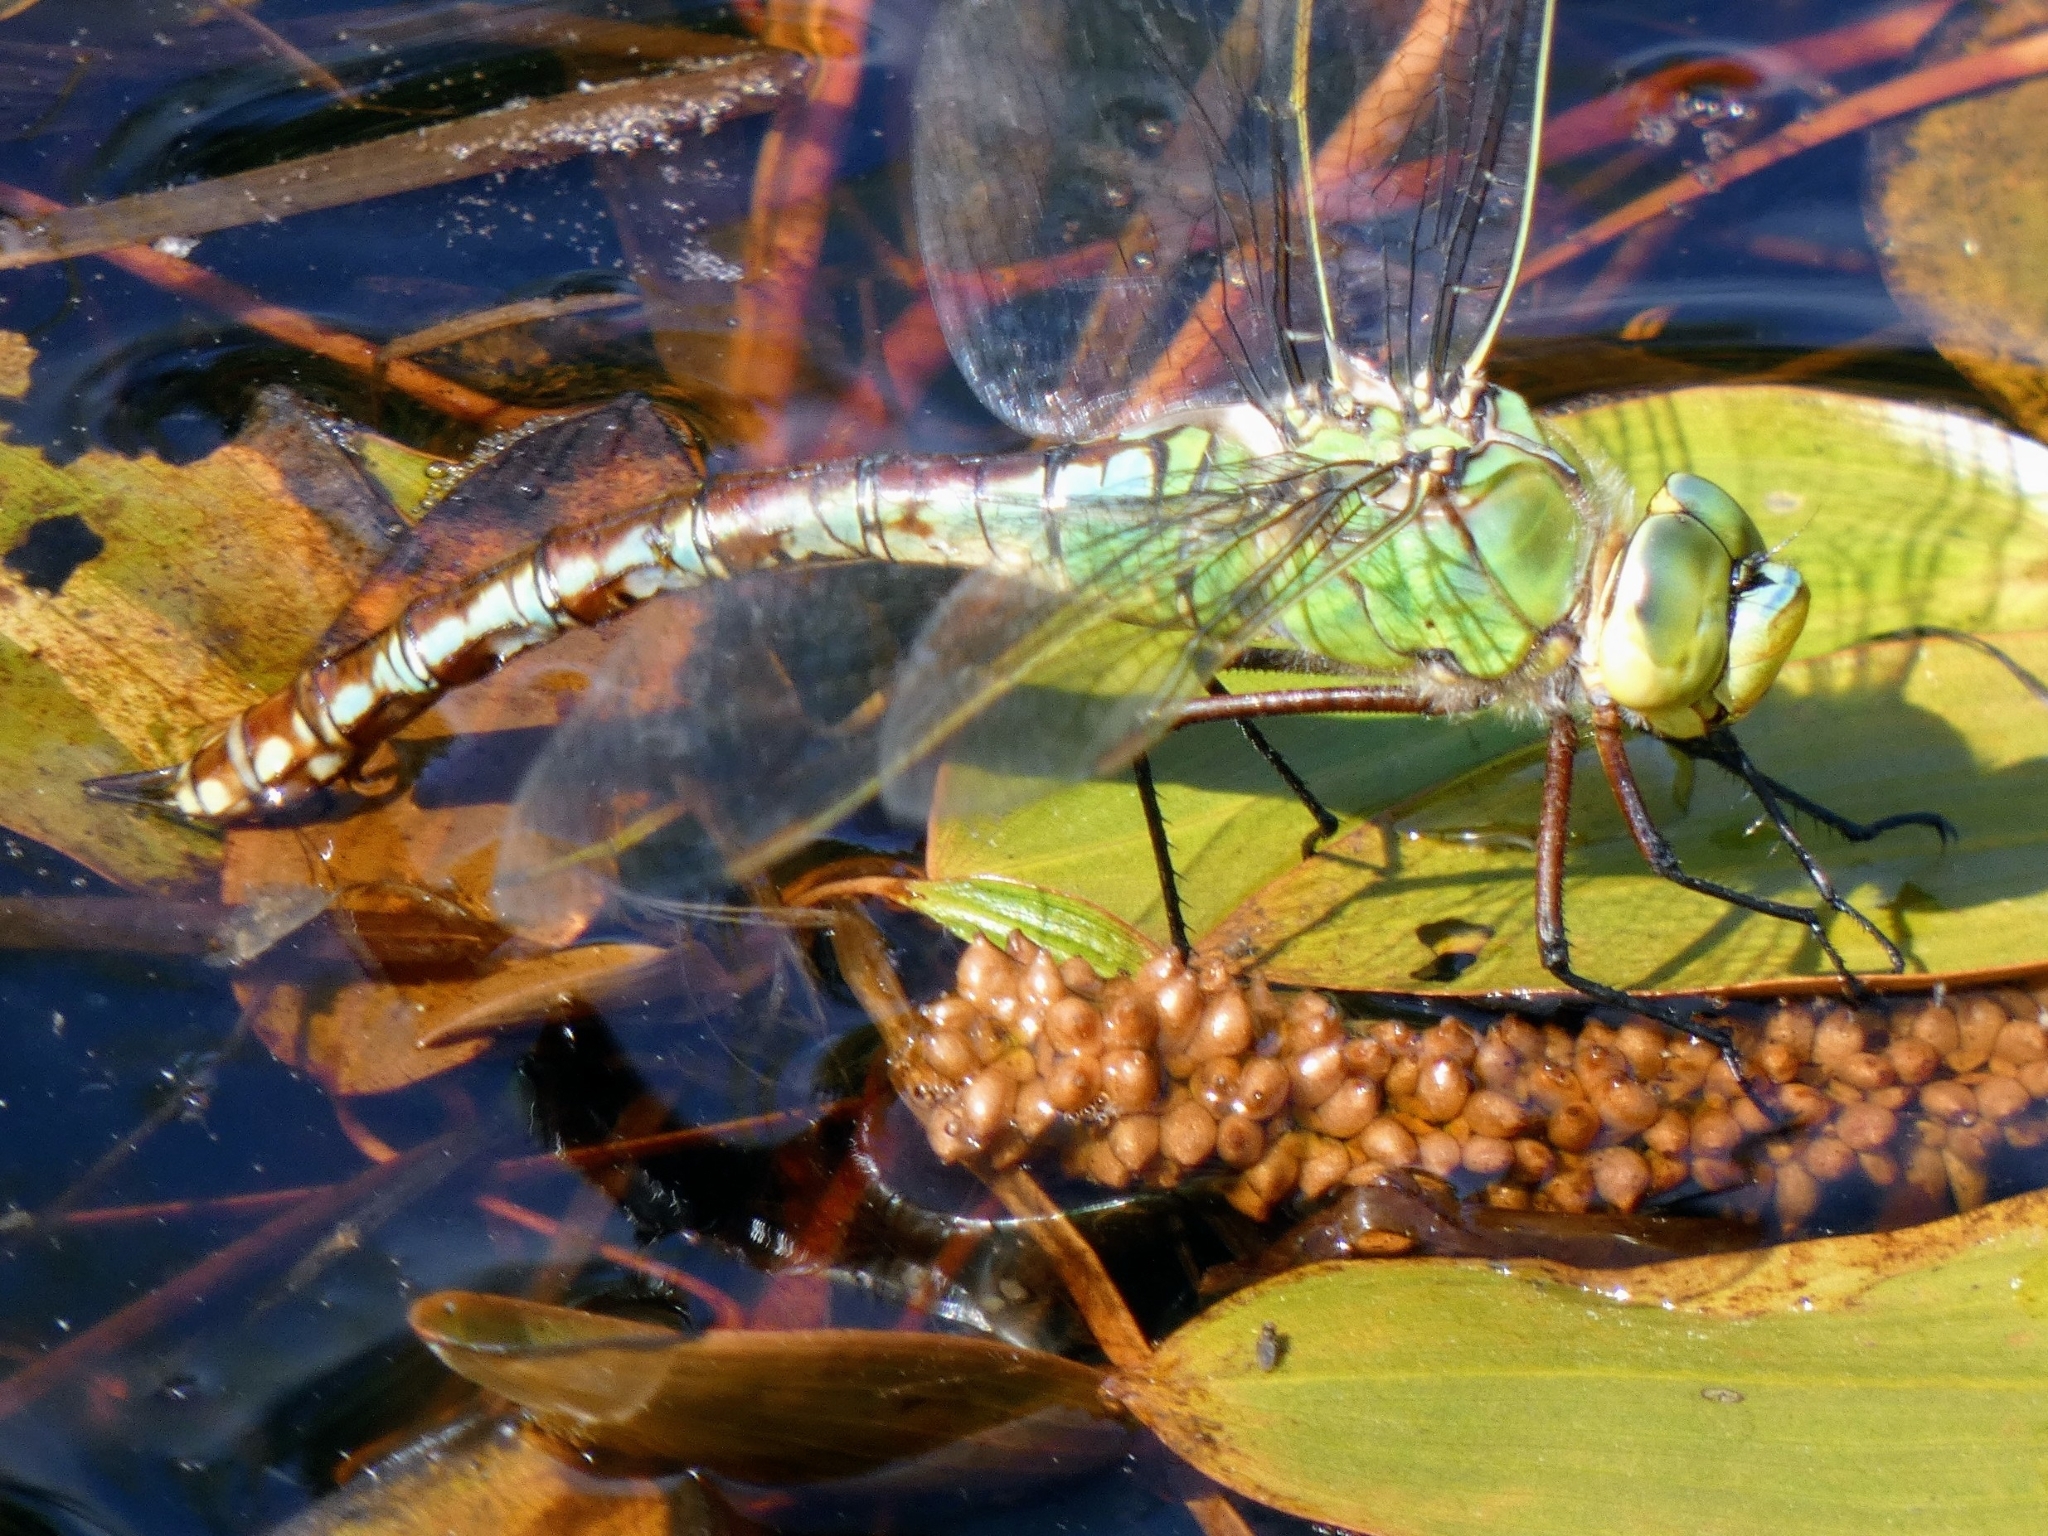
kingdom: Animalia
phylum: Arthropoda
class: Insecta
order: Odonata
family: Aeshnidae
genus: Anax
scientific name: Anax imperator
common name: Emperor dragonfly
